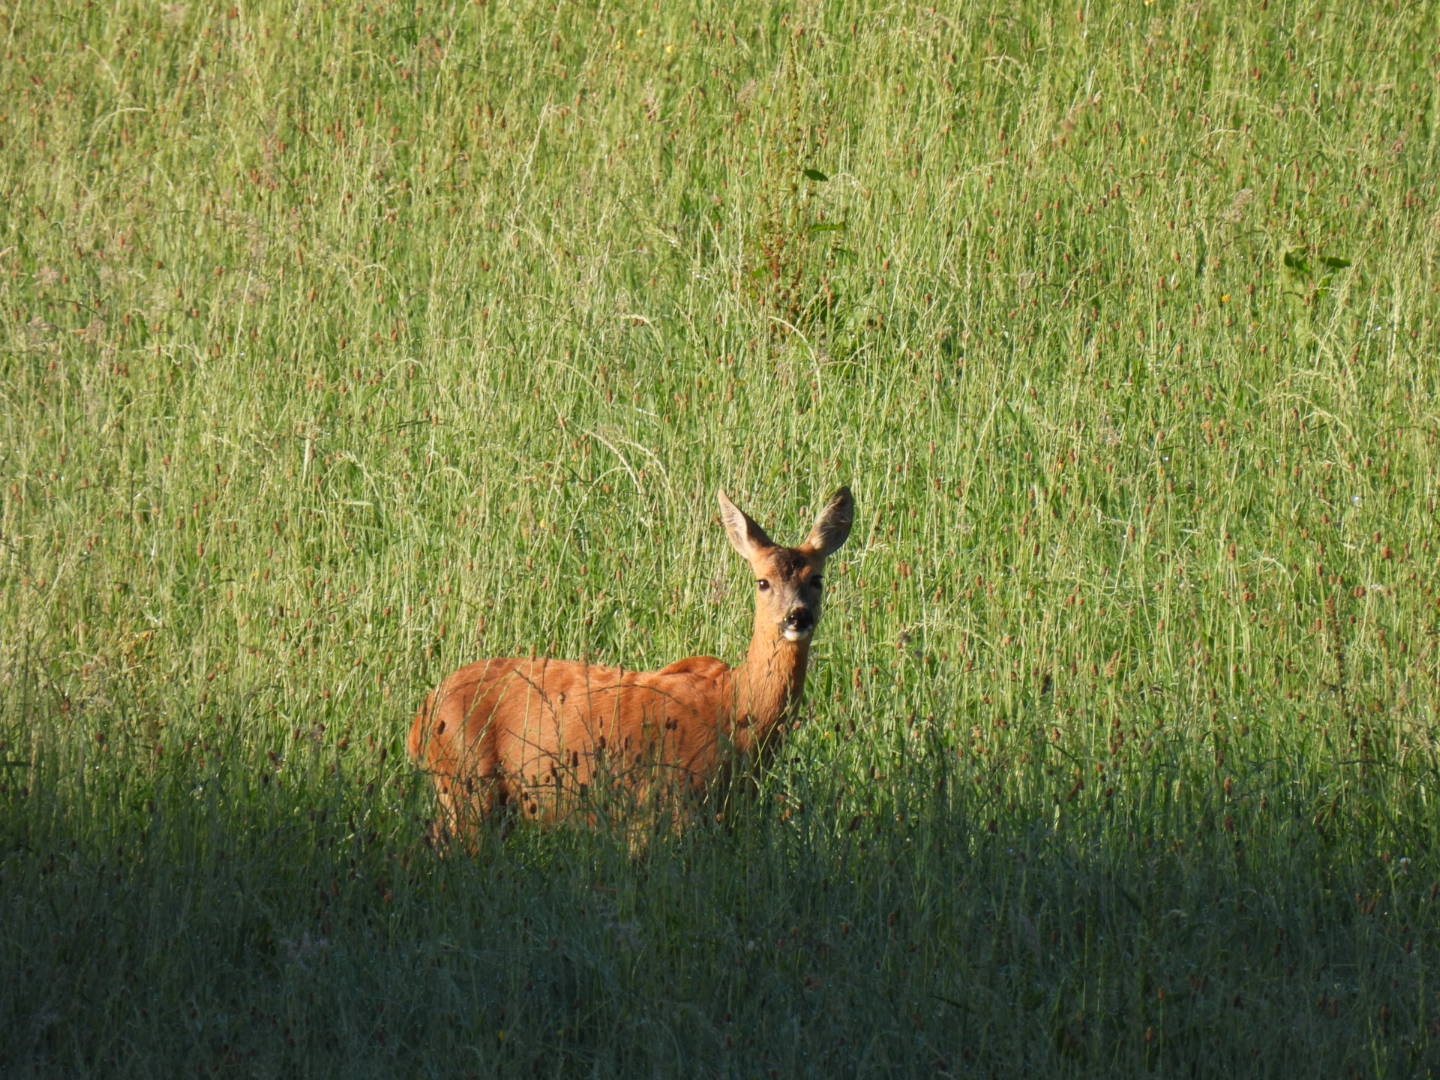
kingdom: Animalia
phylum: Chordata
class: Mammalia
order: Artiodactyla
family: Cervidae
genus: Capreolus
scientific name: Capreolus capreolus
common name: Western roe deer
